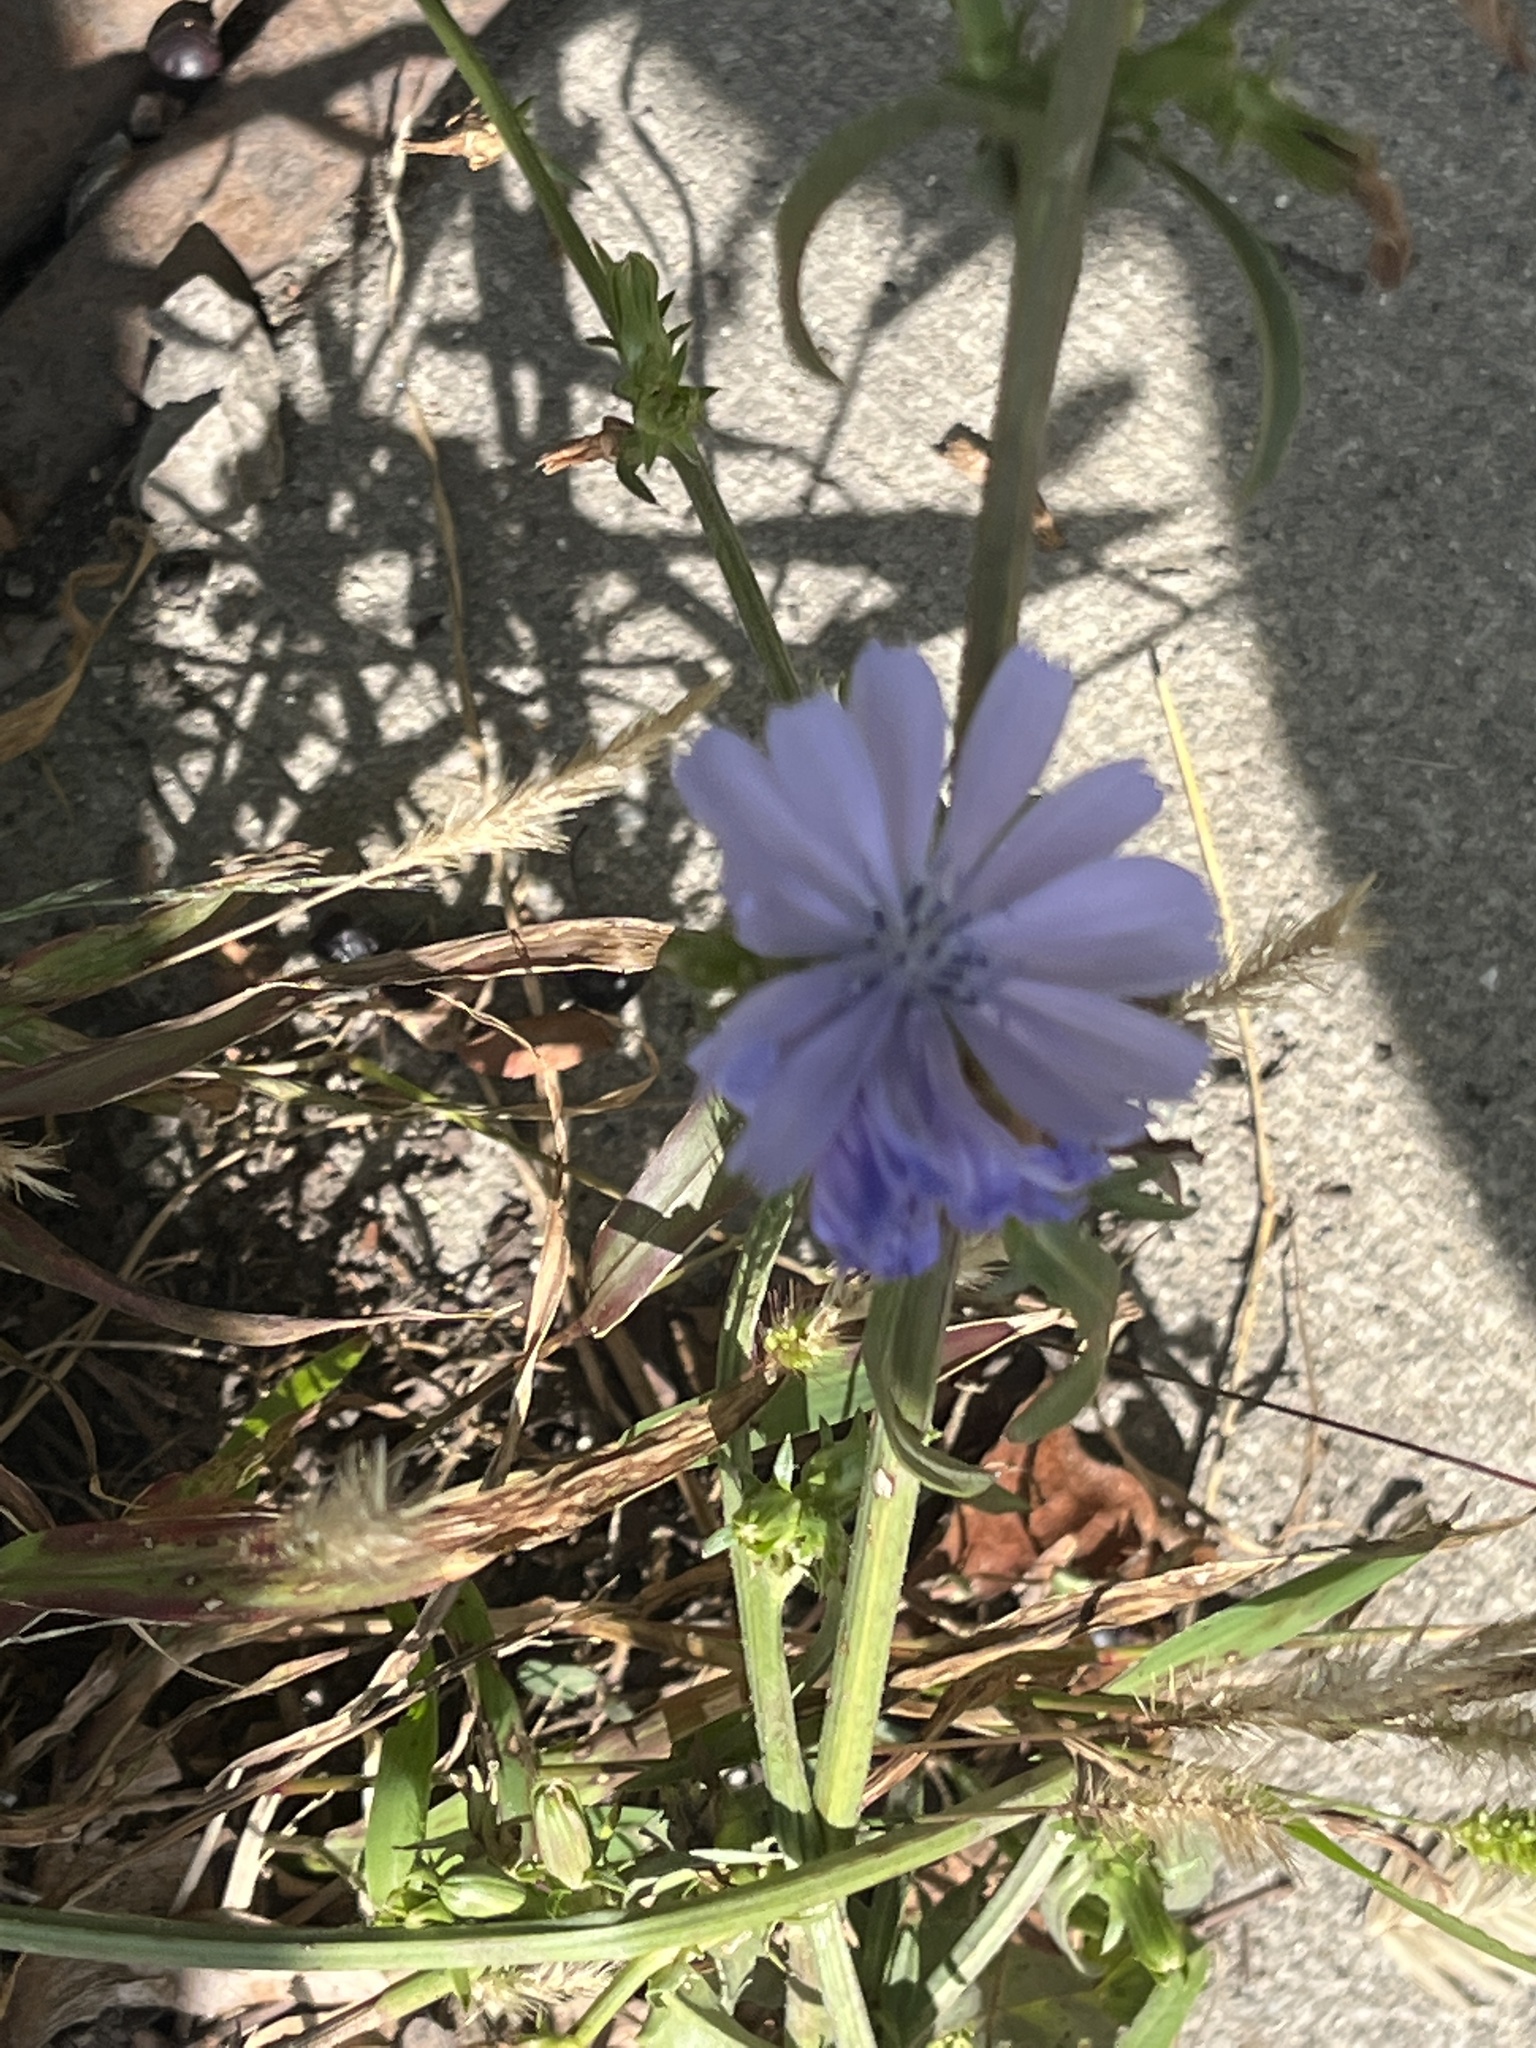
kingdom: Plantae
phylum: Tracheophyta
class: Magnoliopsida
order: Asterales
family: Asteraceae
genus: Cichorium
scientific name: Cichorium intybus
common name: Chicory
